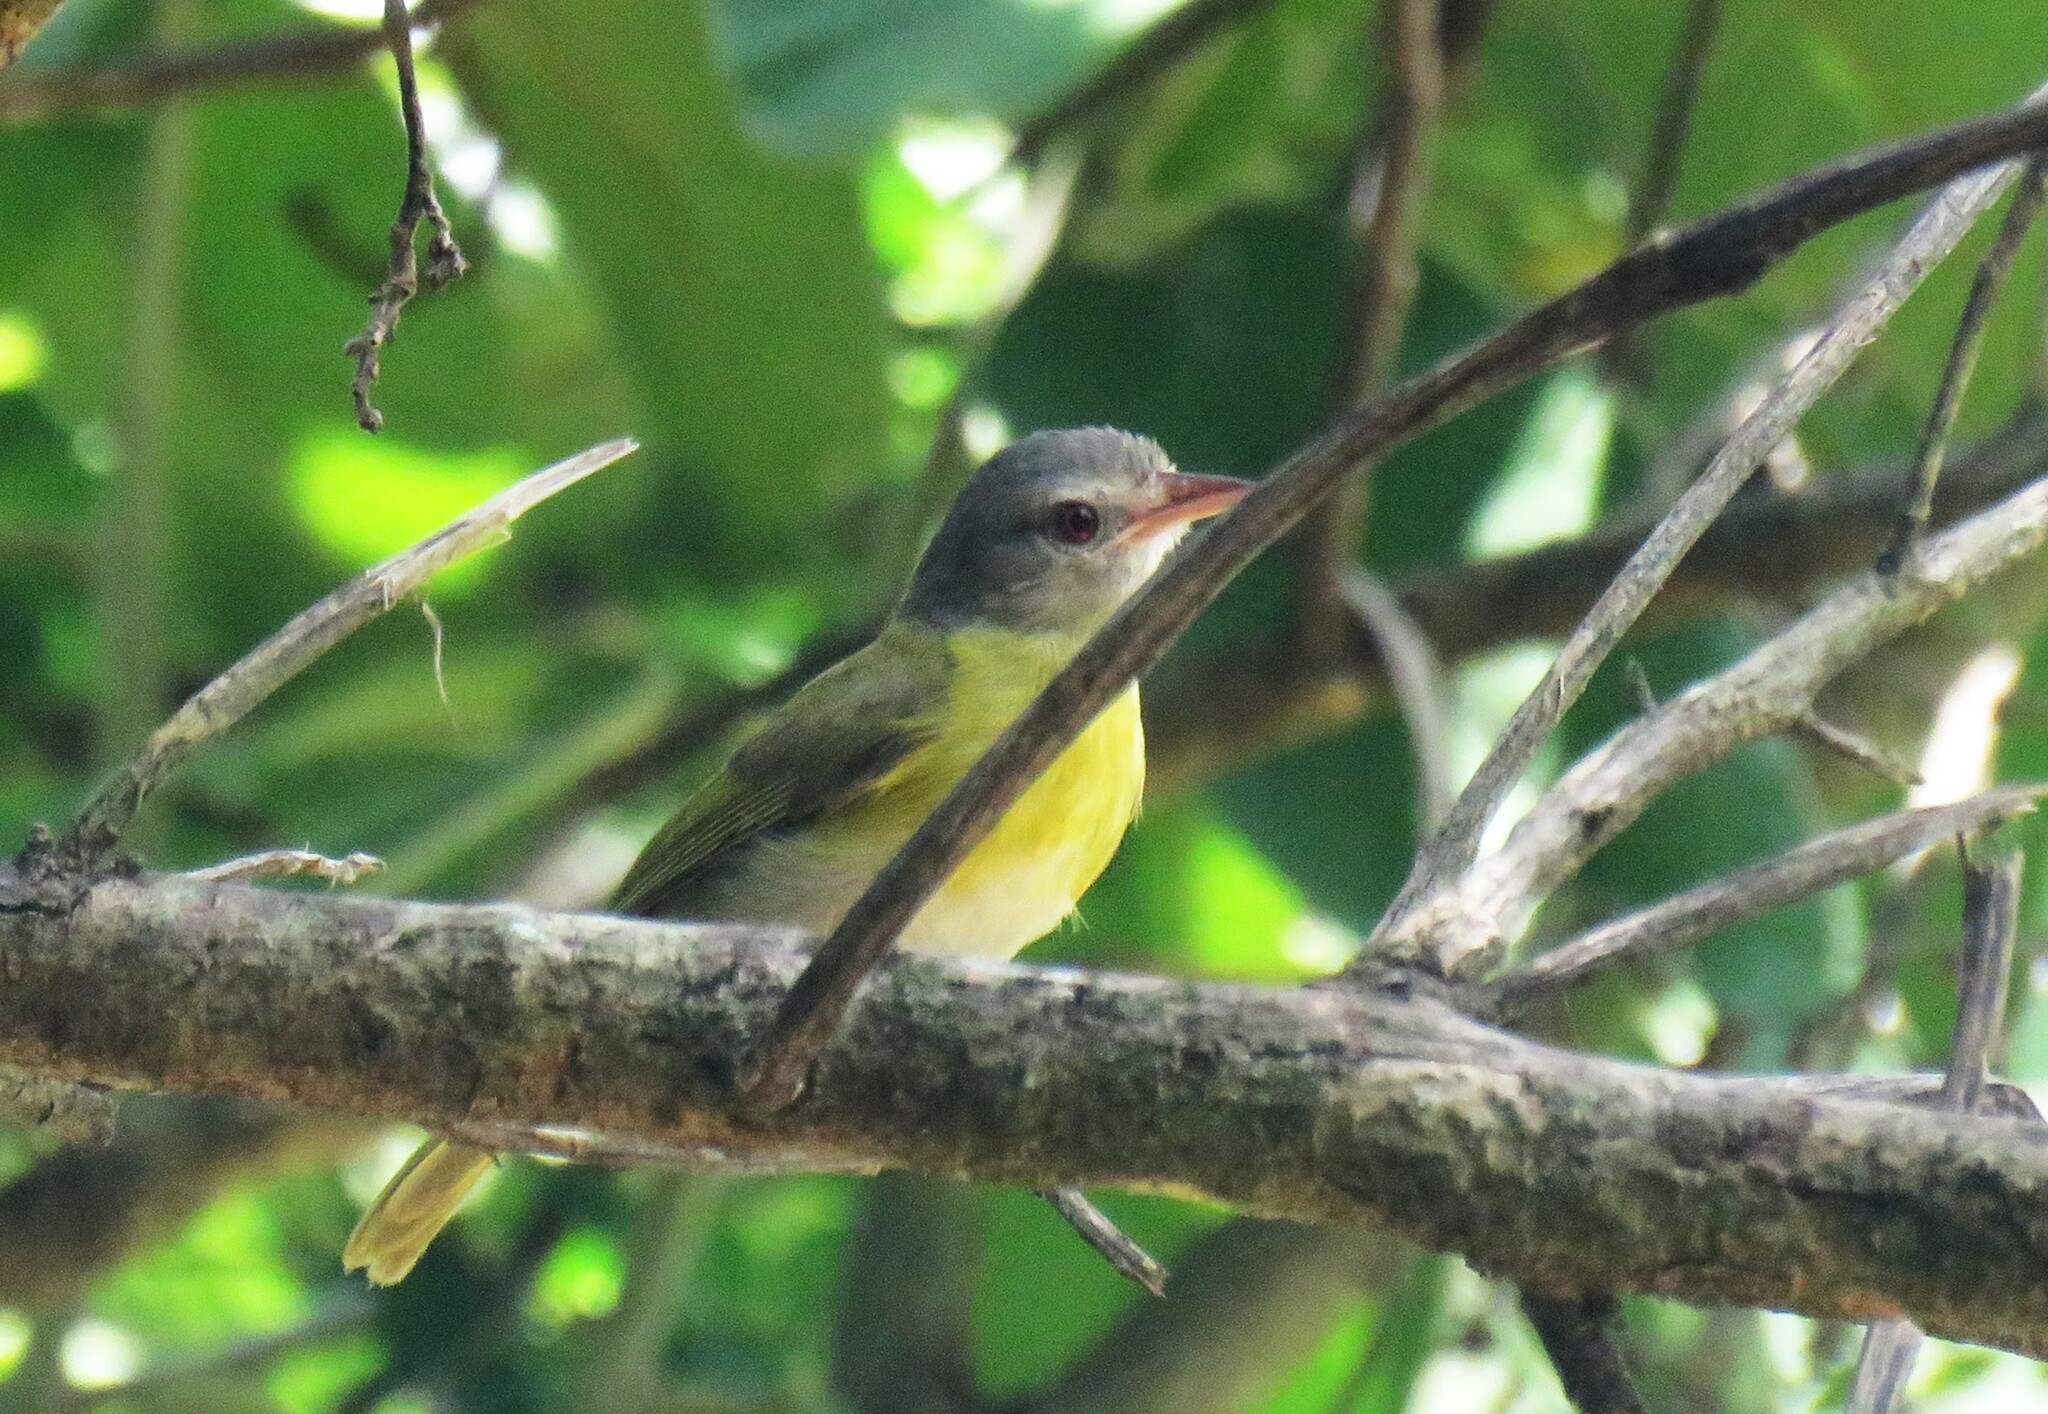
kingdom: Animalia
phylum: Chordata
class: Aves
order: Passeriformes
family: Vireonidae
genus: Hylophilus
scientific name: Hylophilus pectoralis
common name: Ashy-headed greenlet
